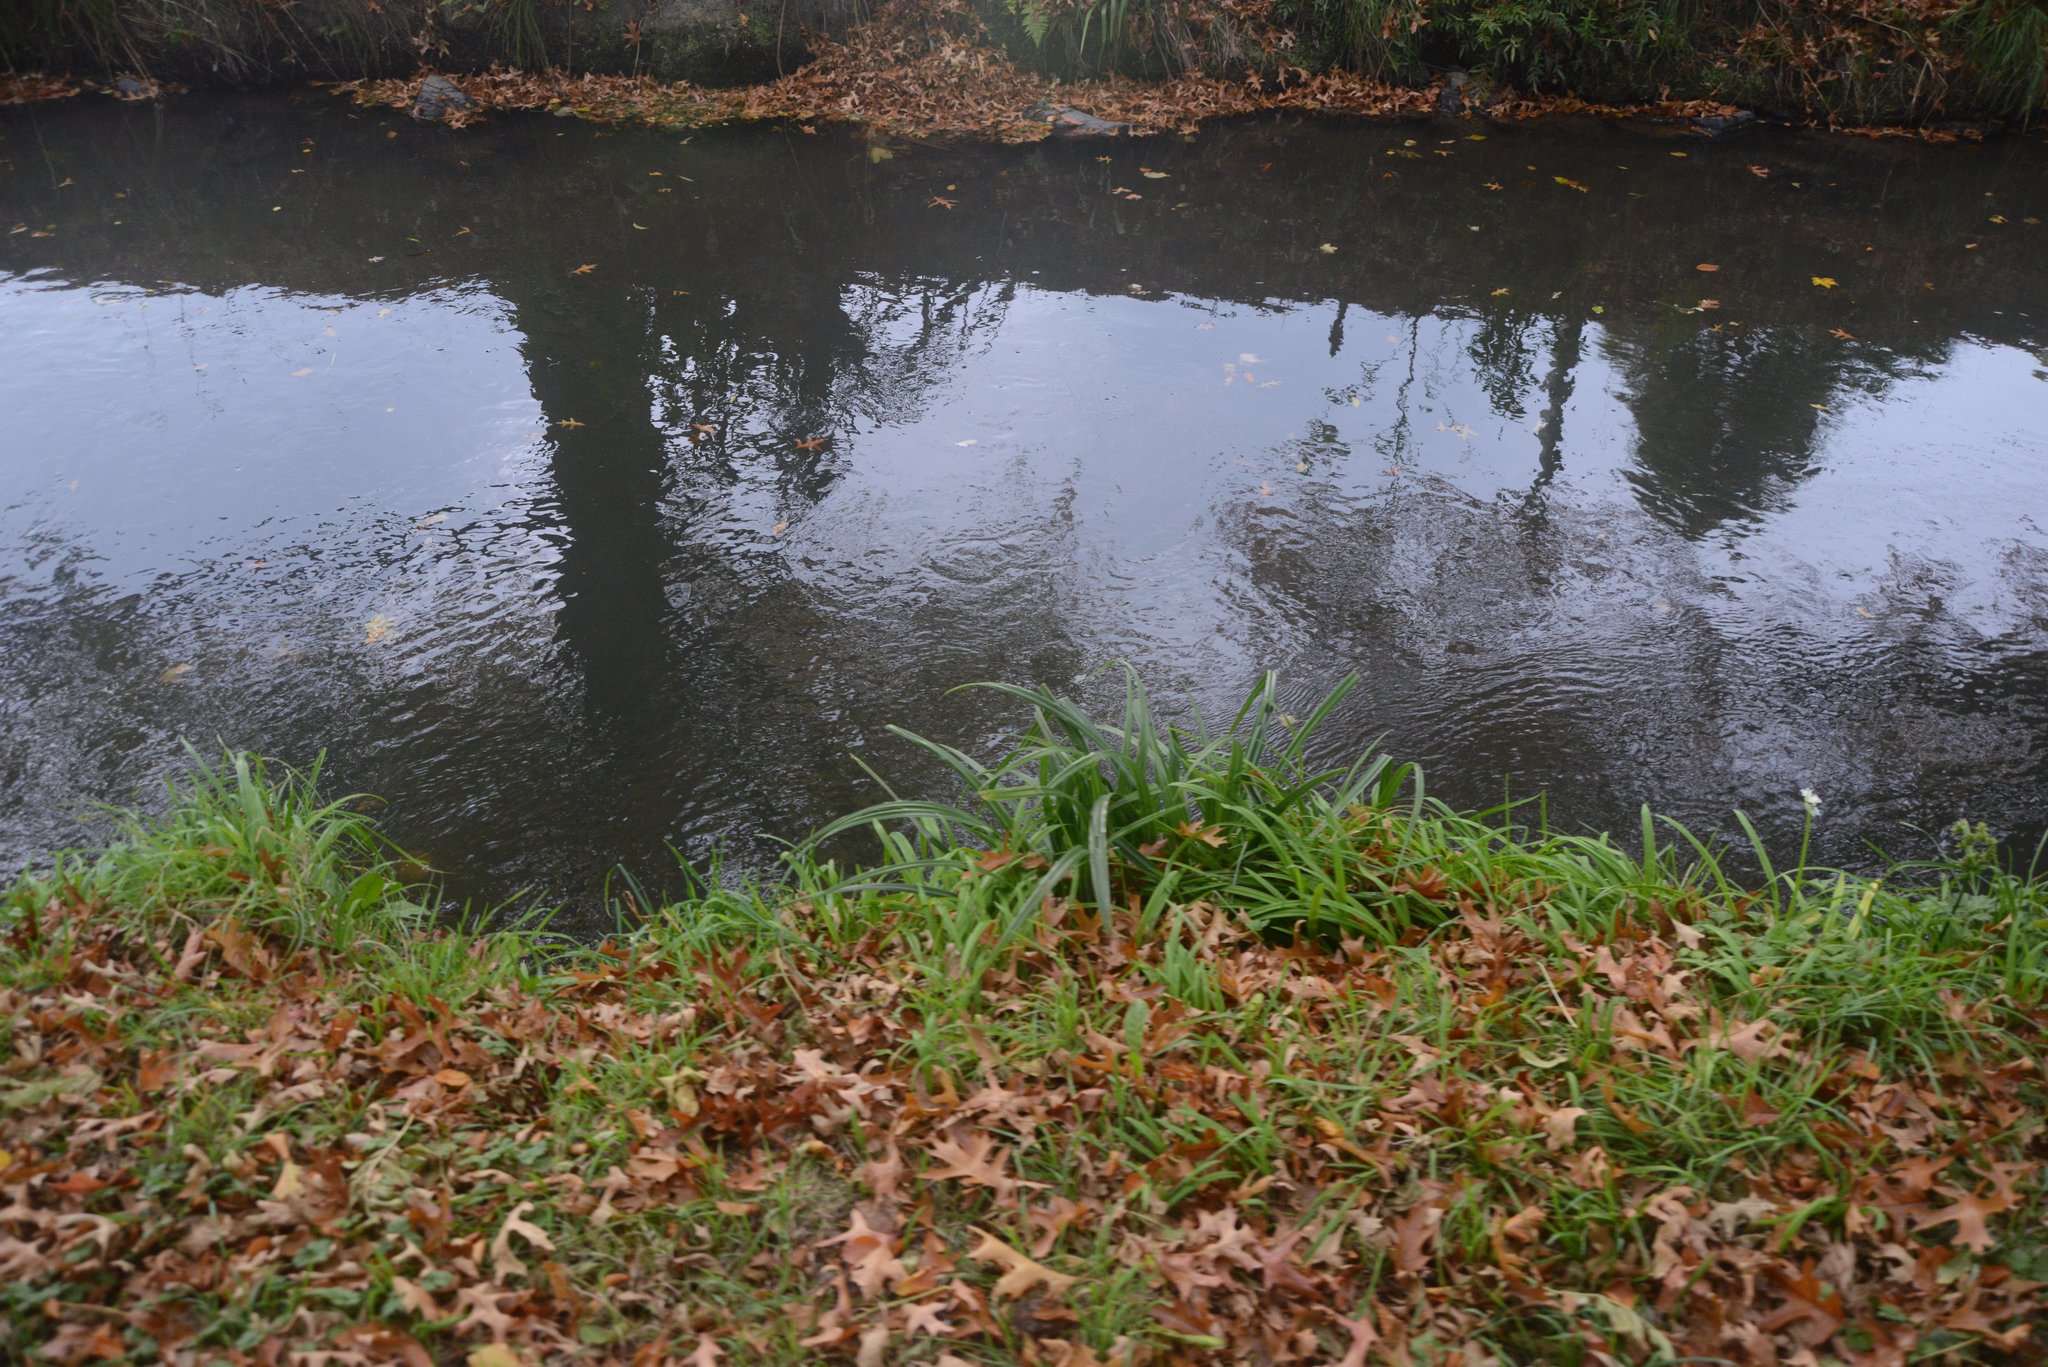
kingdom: Plantae
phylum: Tracheophyta
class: Liliopsida
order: Poales
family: Cyperaceae
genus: Carex
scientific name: Carex pendula
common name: Pendulous sedge
